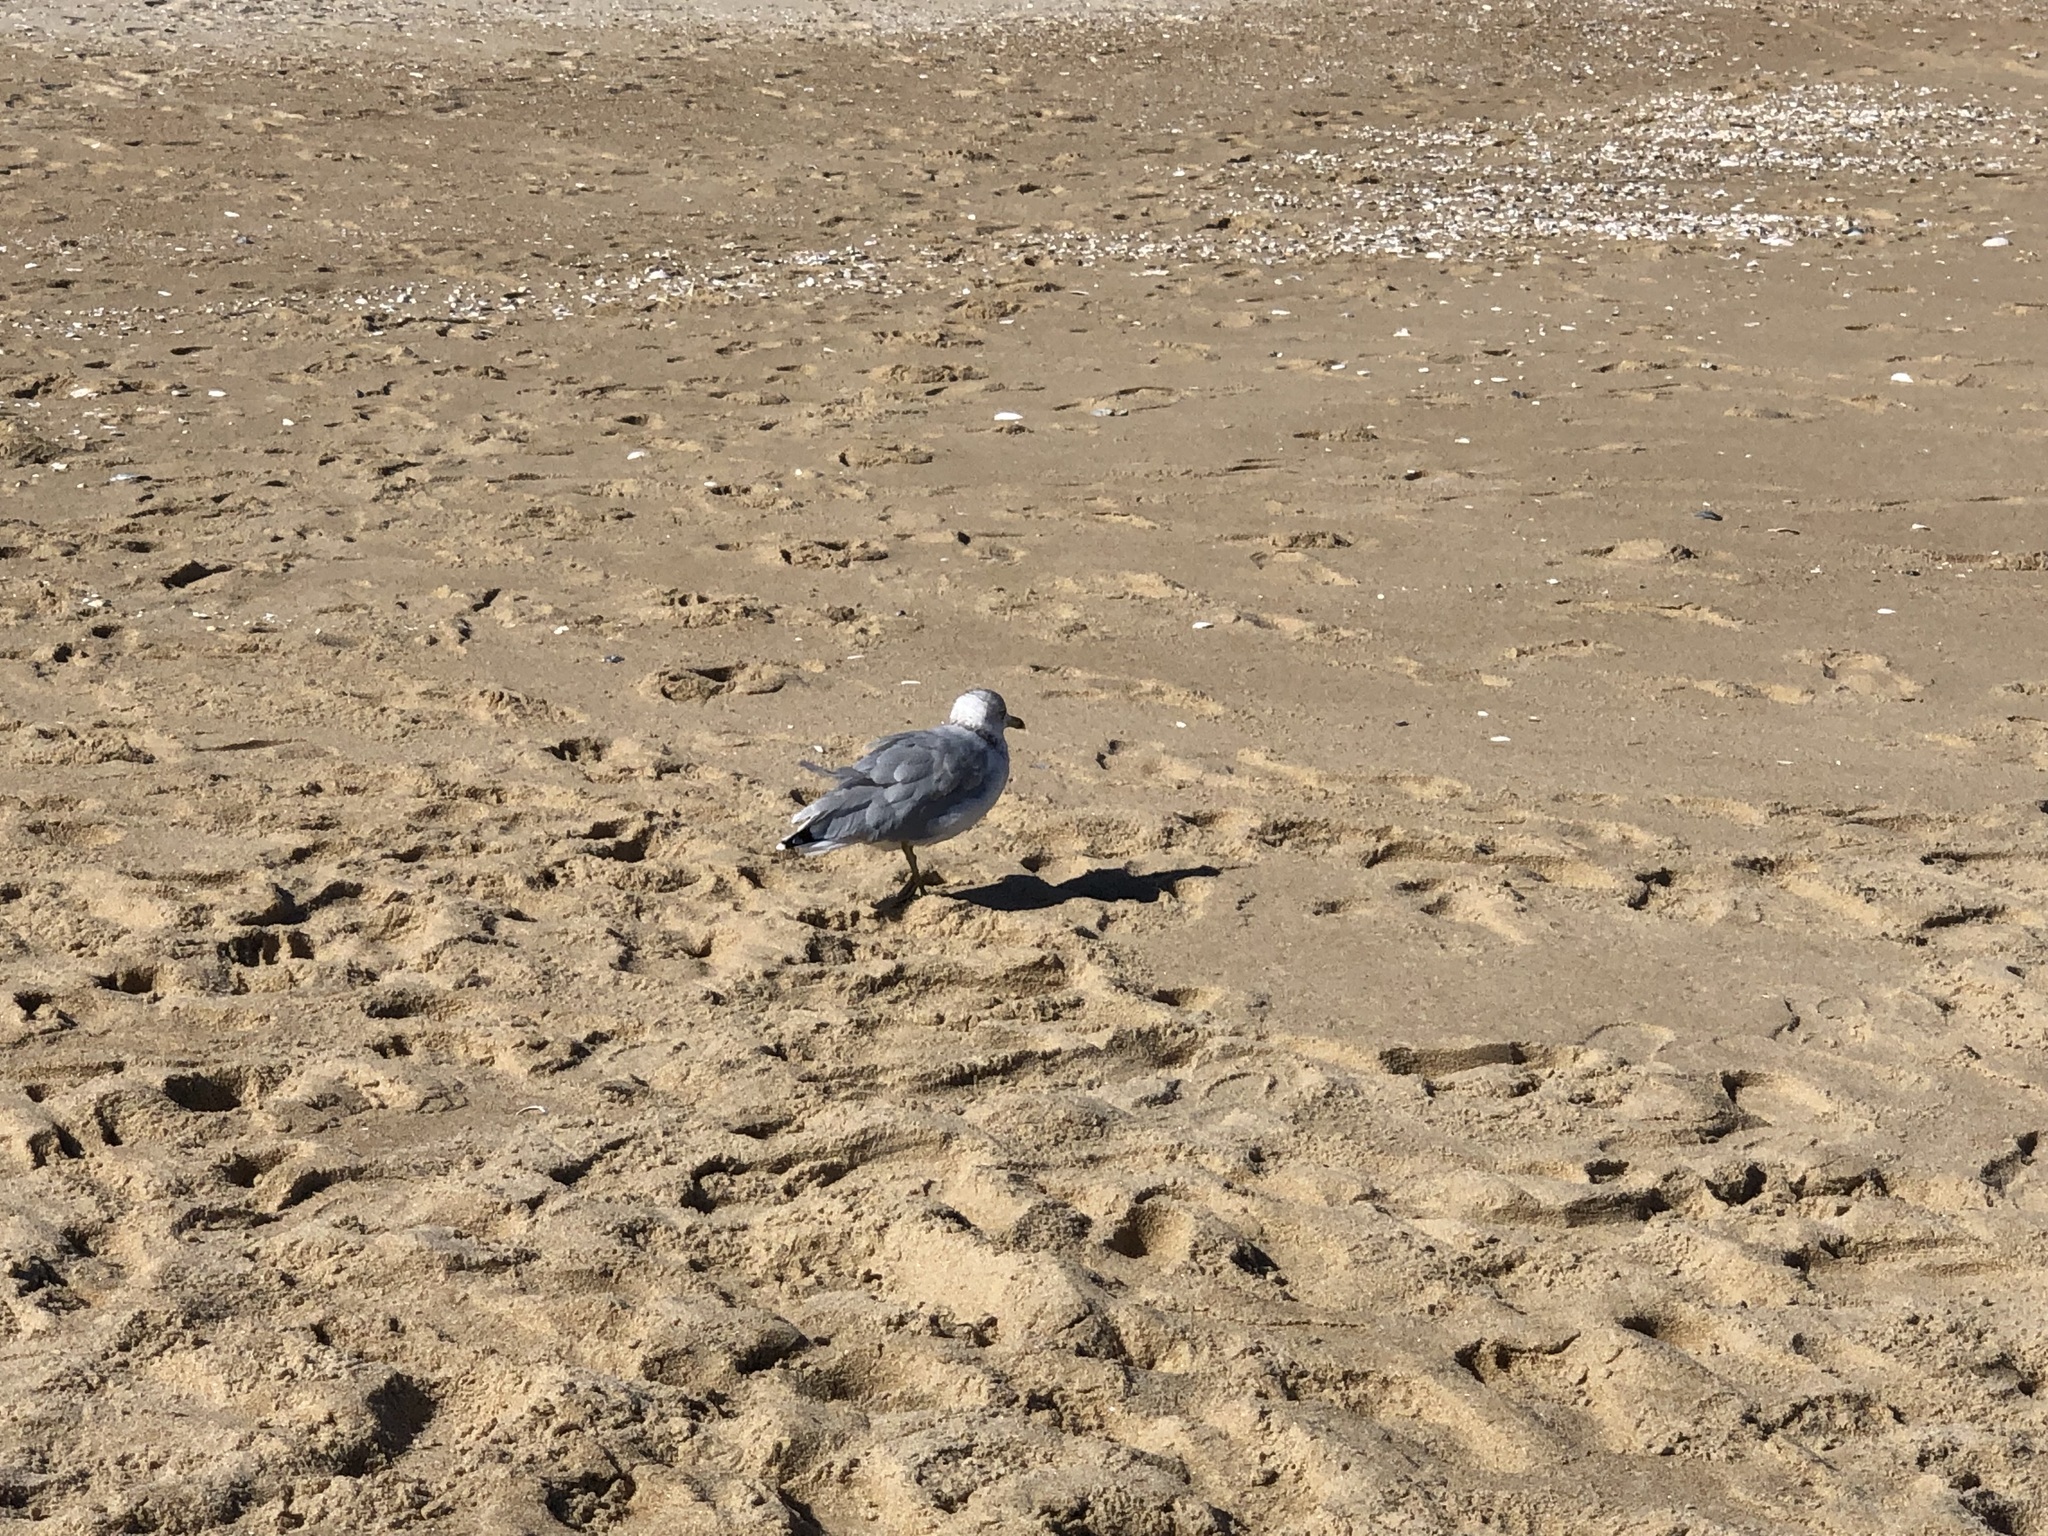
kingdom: Animalia
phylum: Chordata
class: Aves
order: Charadriiformes
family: Laridae
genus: Larus
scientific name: Larus delawarensis
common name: Ring-billed gull
